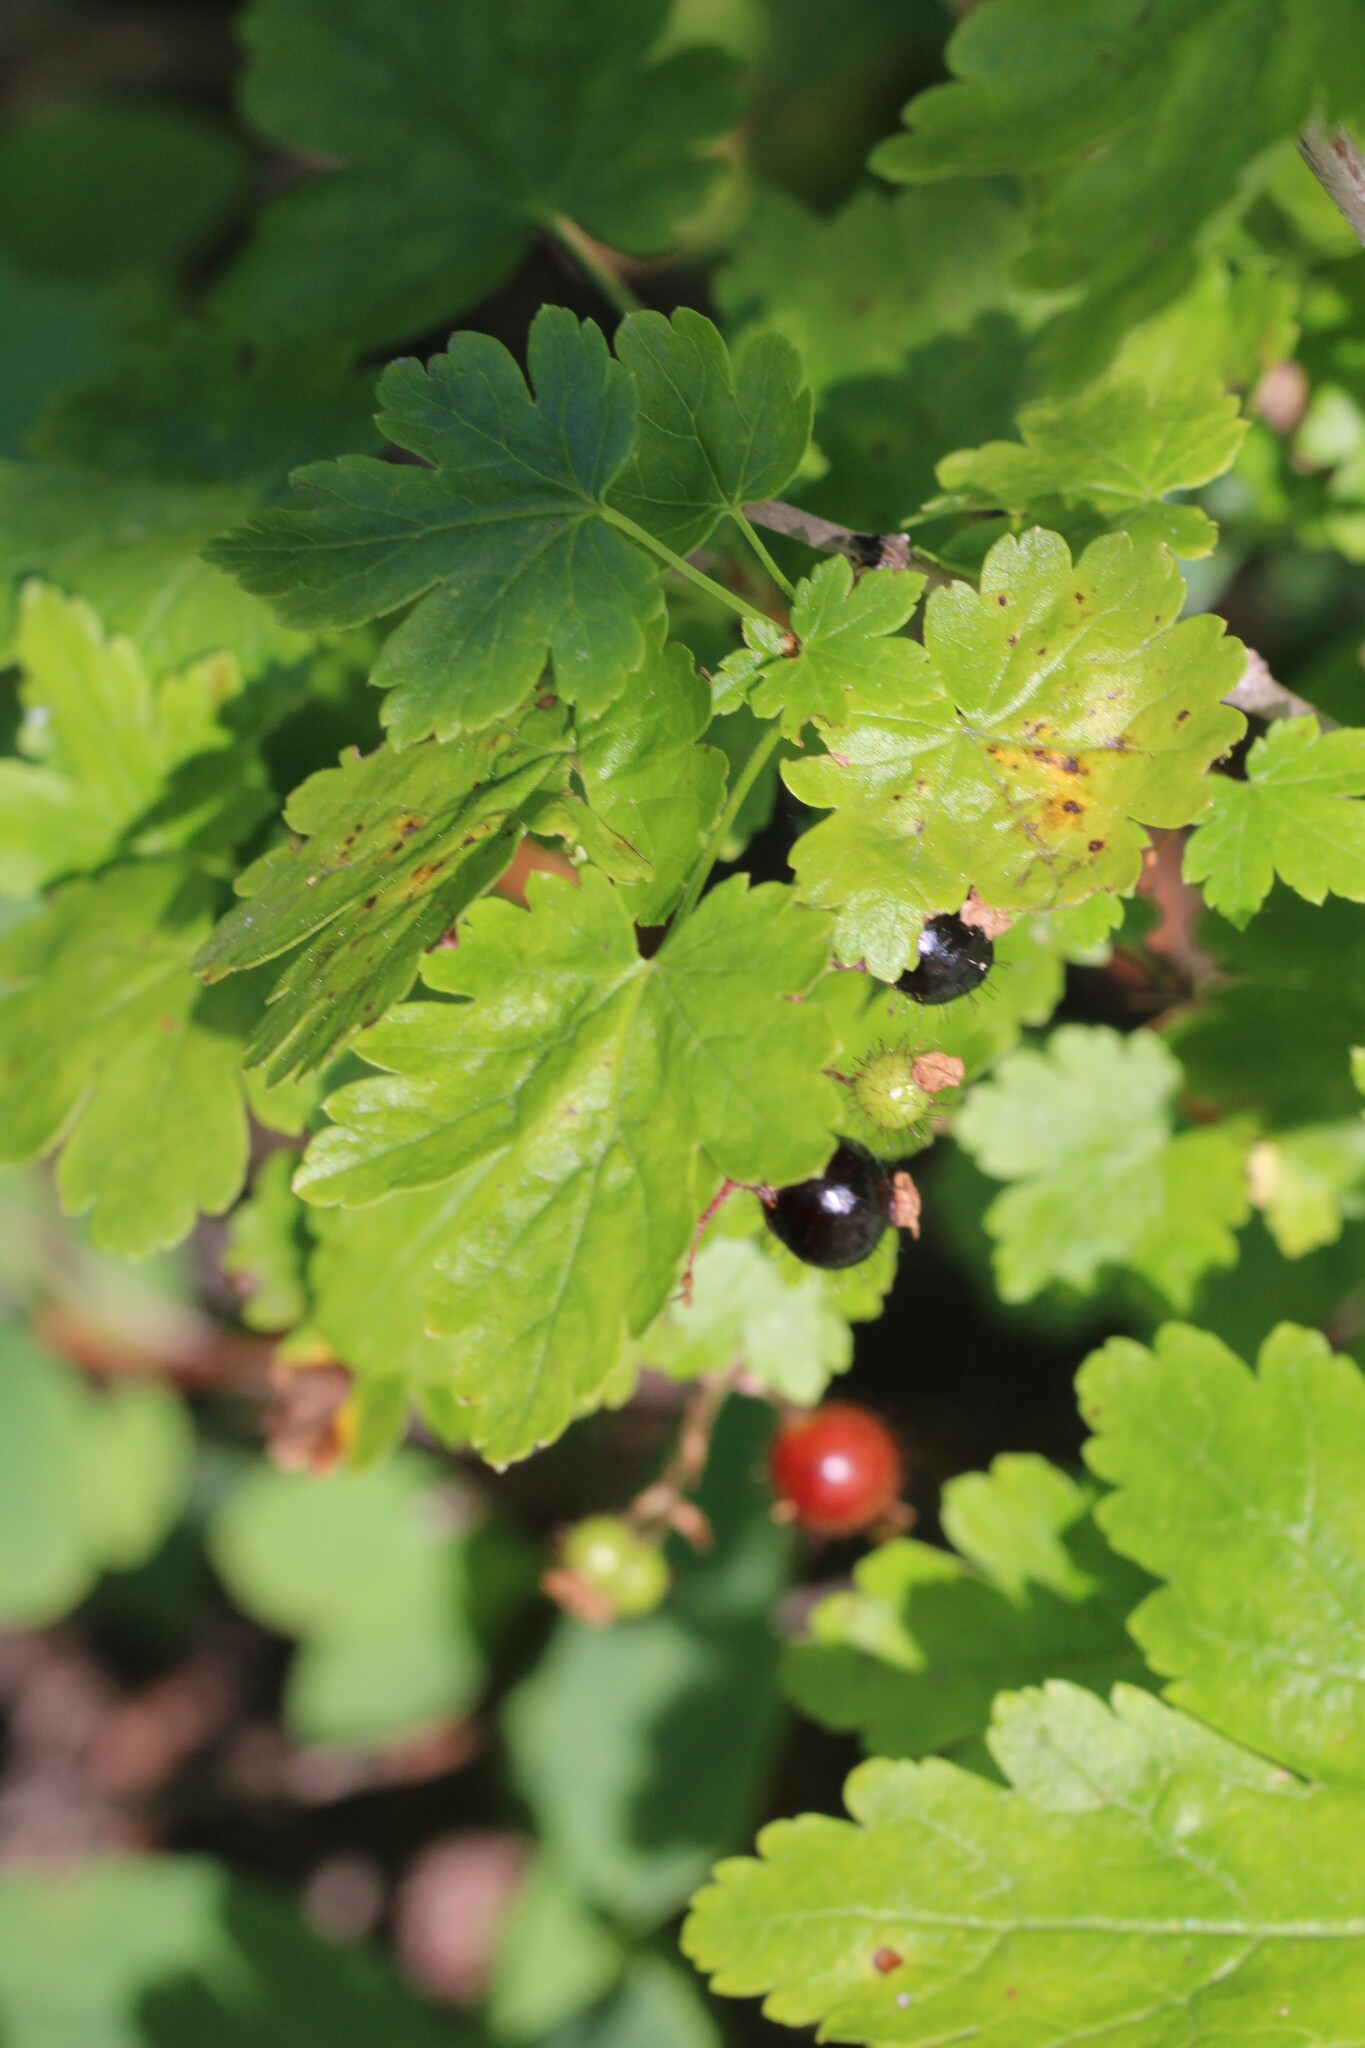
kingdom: Plantae
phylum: Tracheophyta
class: Magnoliopsida
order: Saxifragales
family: Grossulariaceae
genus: Ribes
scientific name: Ribes lacustre
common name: Black gooseberry
